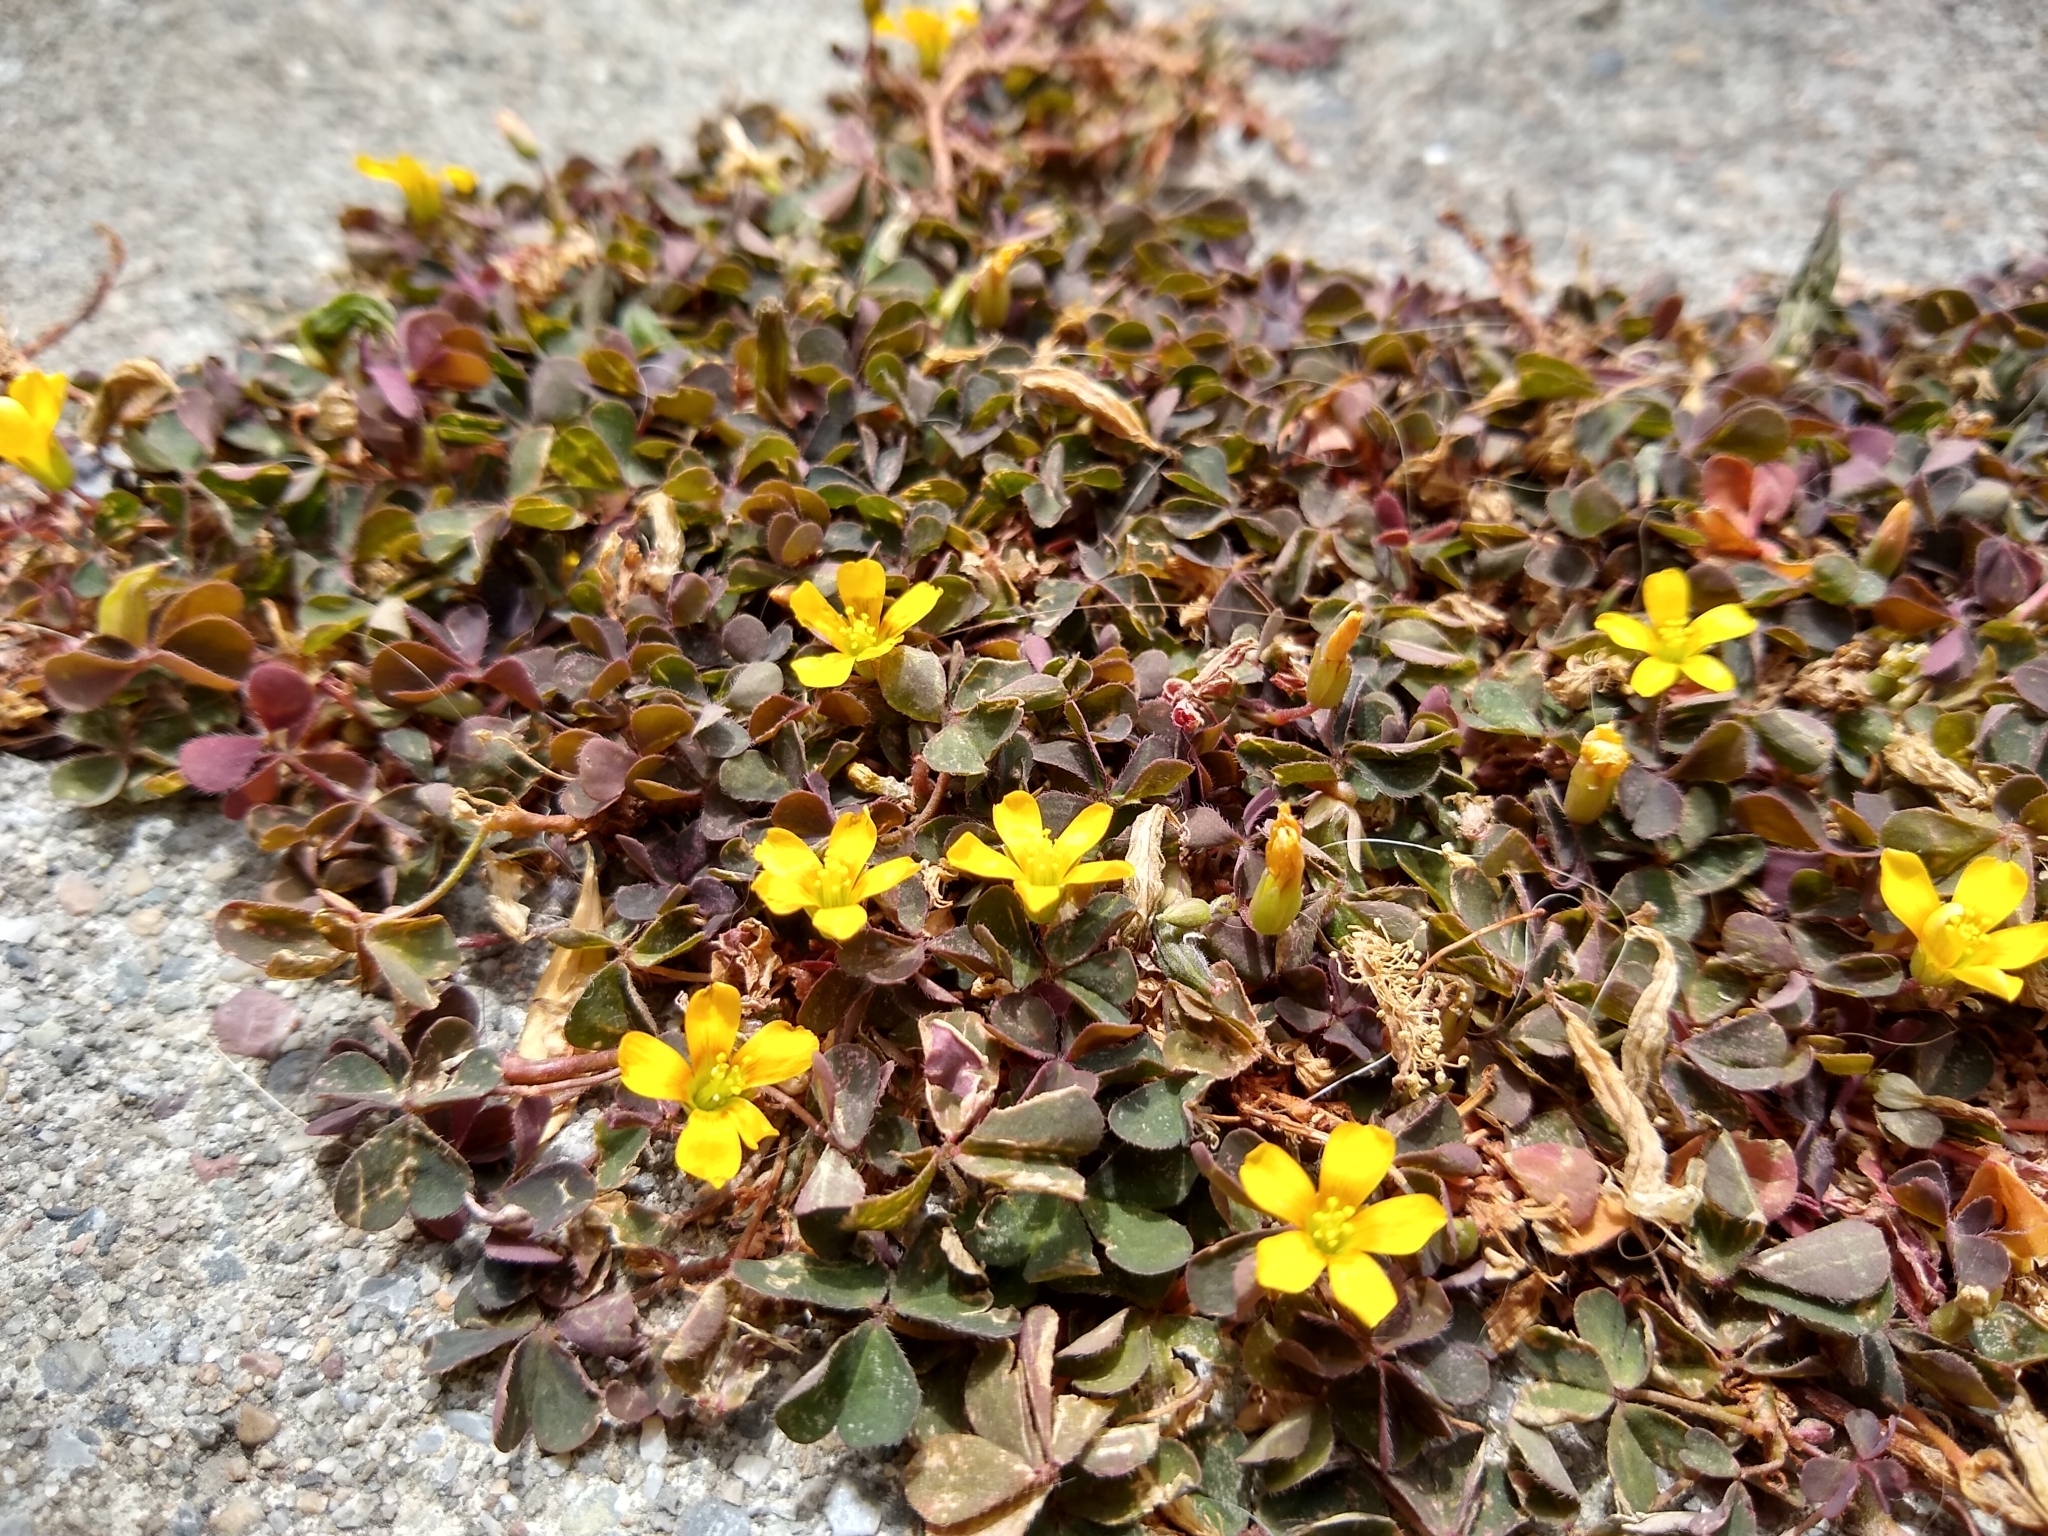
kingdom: Plantae
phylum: Tracheophyta
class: Magnoliopsida
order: Oxalidales
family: Oxalidaceae
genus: Oxalis
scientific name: Oxalis corniculata
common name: Procumbent yellow-sorrel
